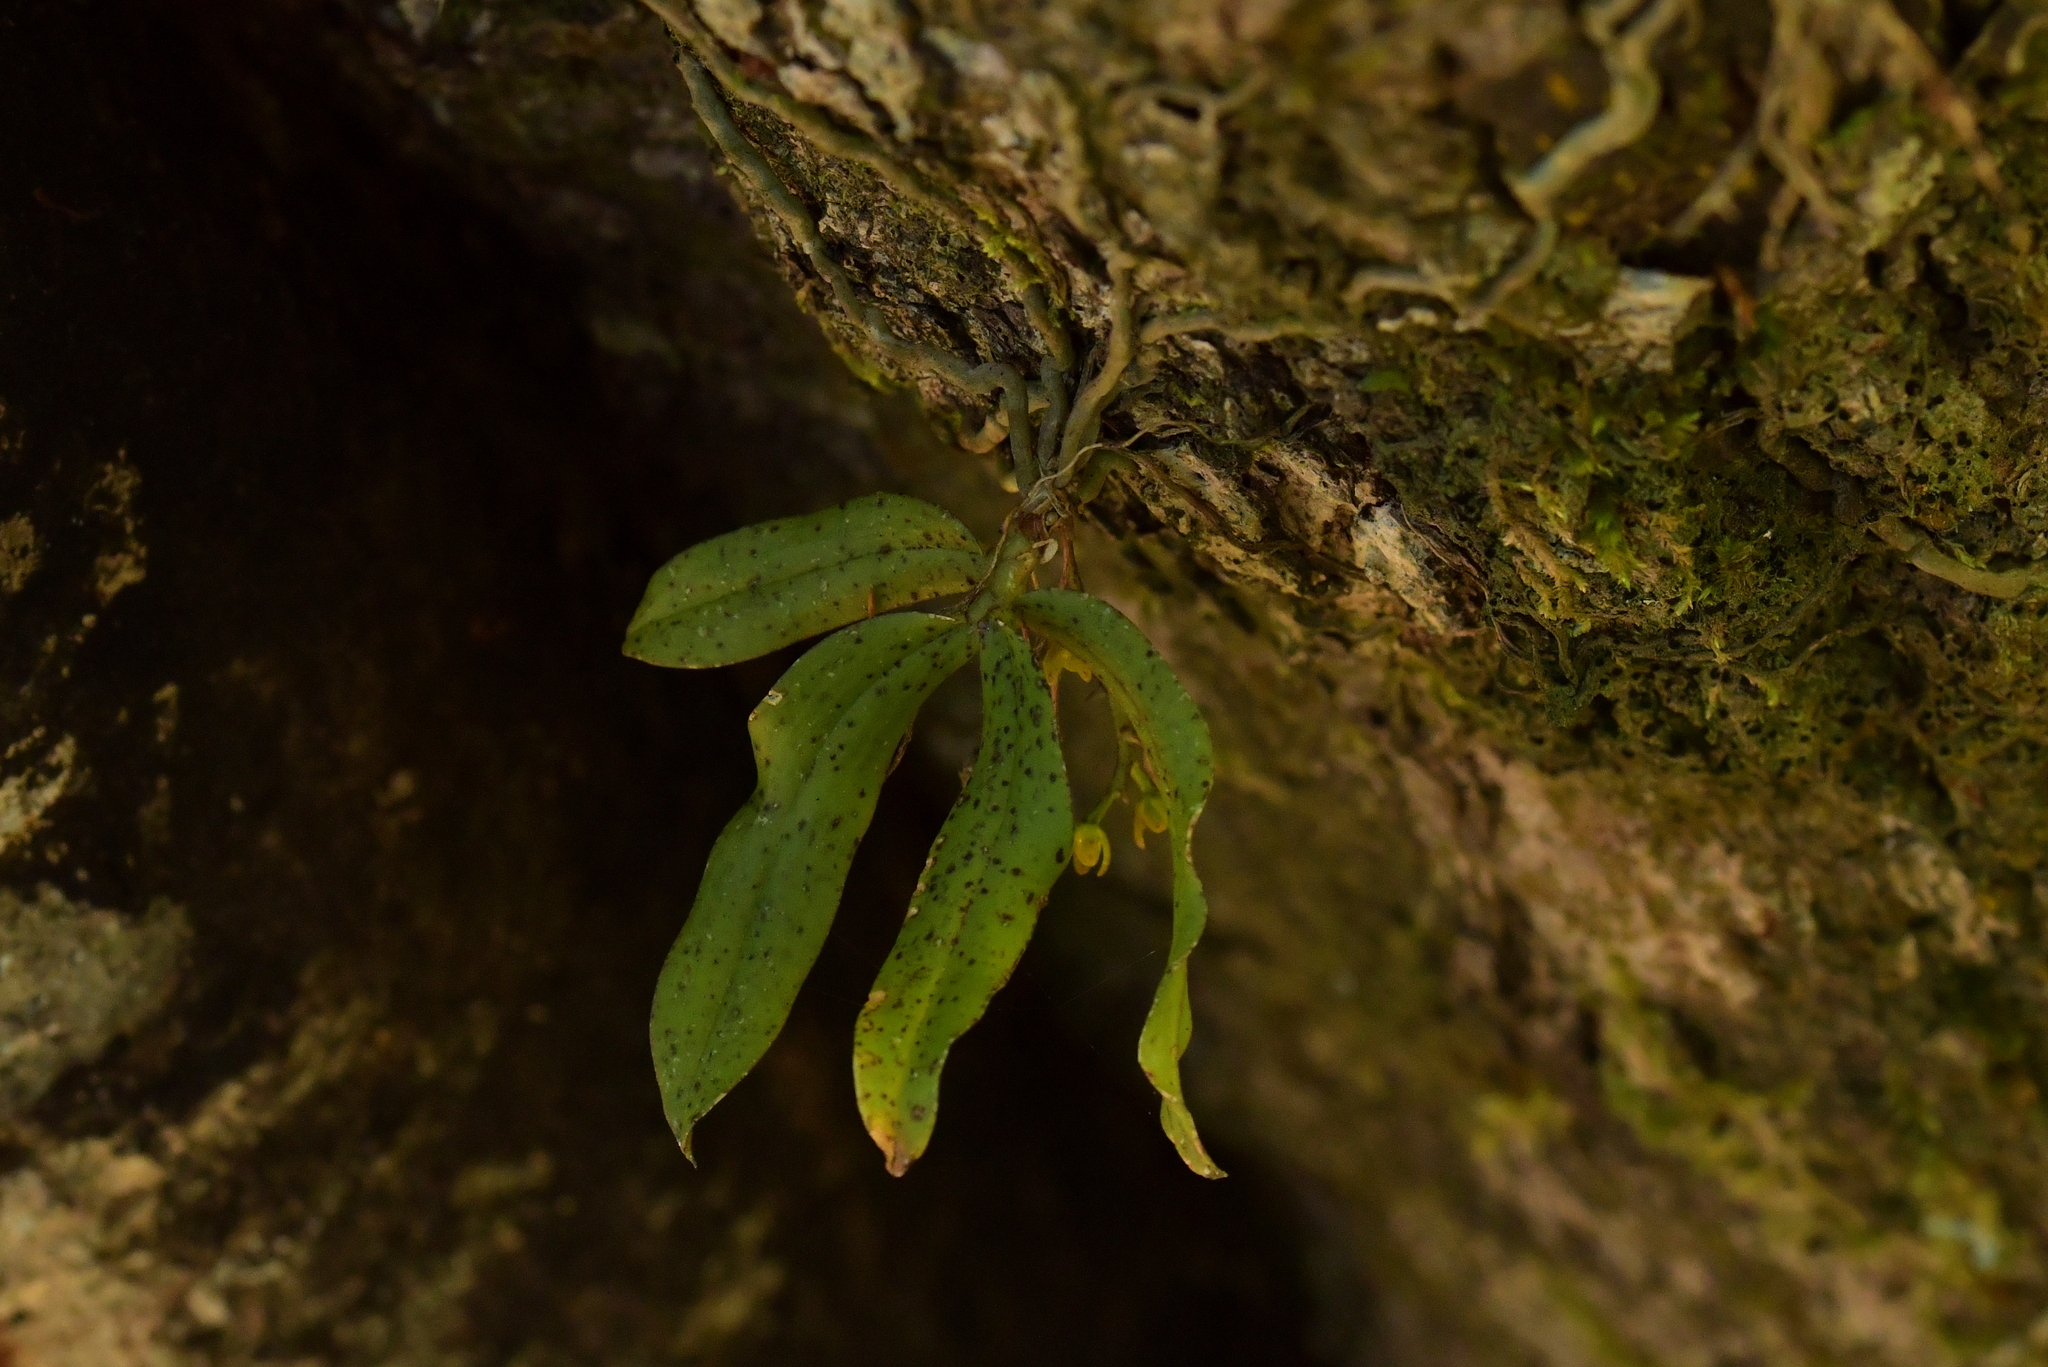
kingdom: Plantae
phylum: Tracheophyta
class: Liliopsida
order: Asparagales
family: Orchidaceae
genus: Drymoanthus
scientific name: Drymoanthus flavus
